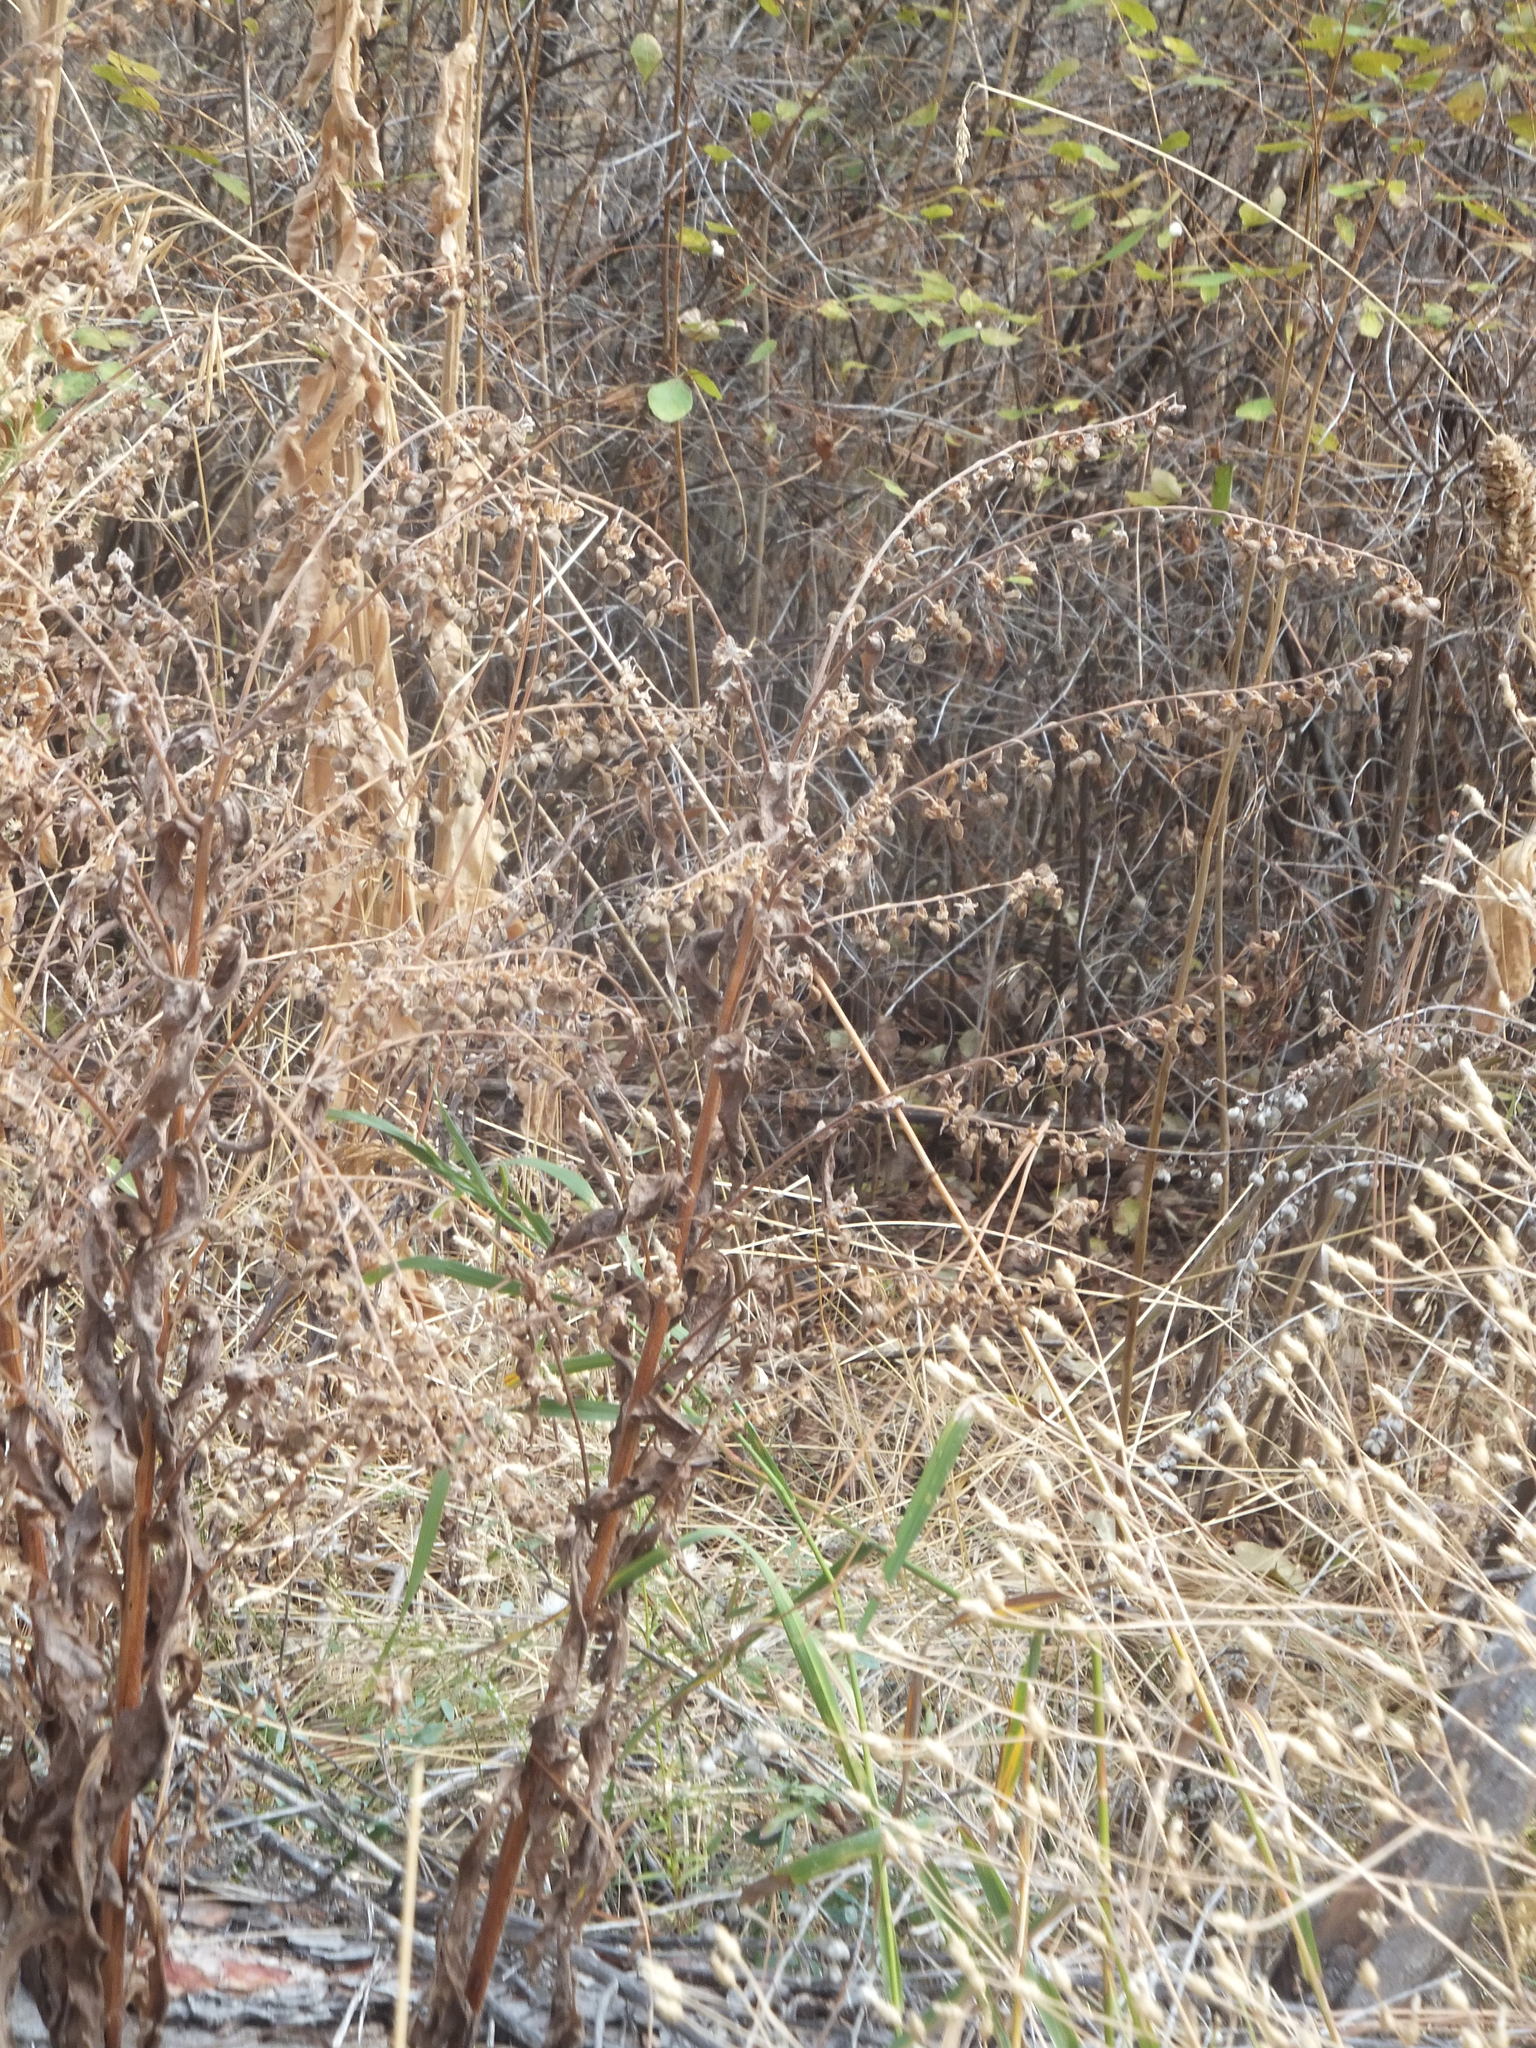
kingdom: Plantae
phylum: Tracheophyta
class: Magnoliopsida
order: Boraginales
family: Boraginaceae
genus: Cynoglossum
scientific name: Cynoglossum officinale
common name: Hound's-tongue
